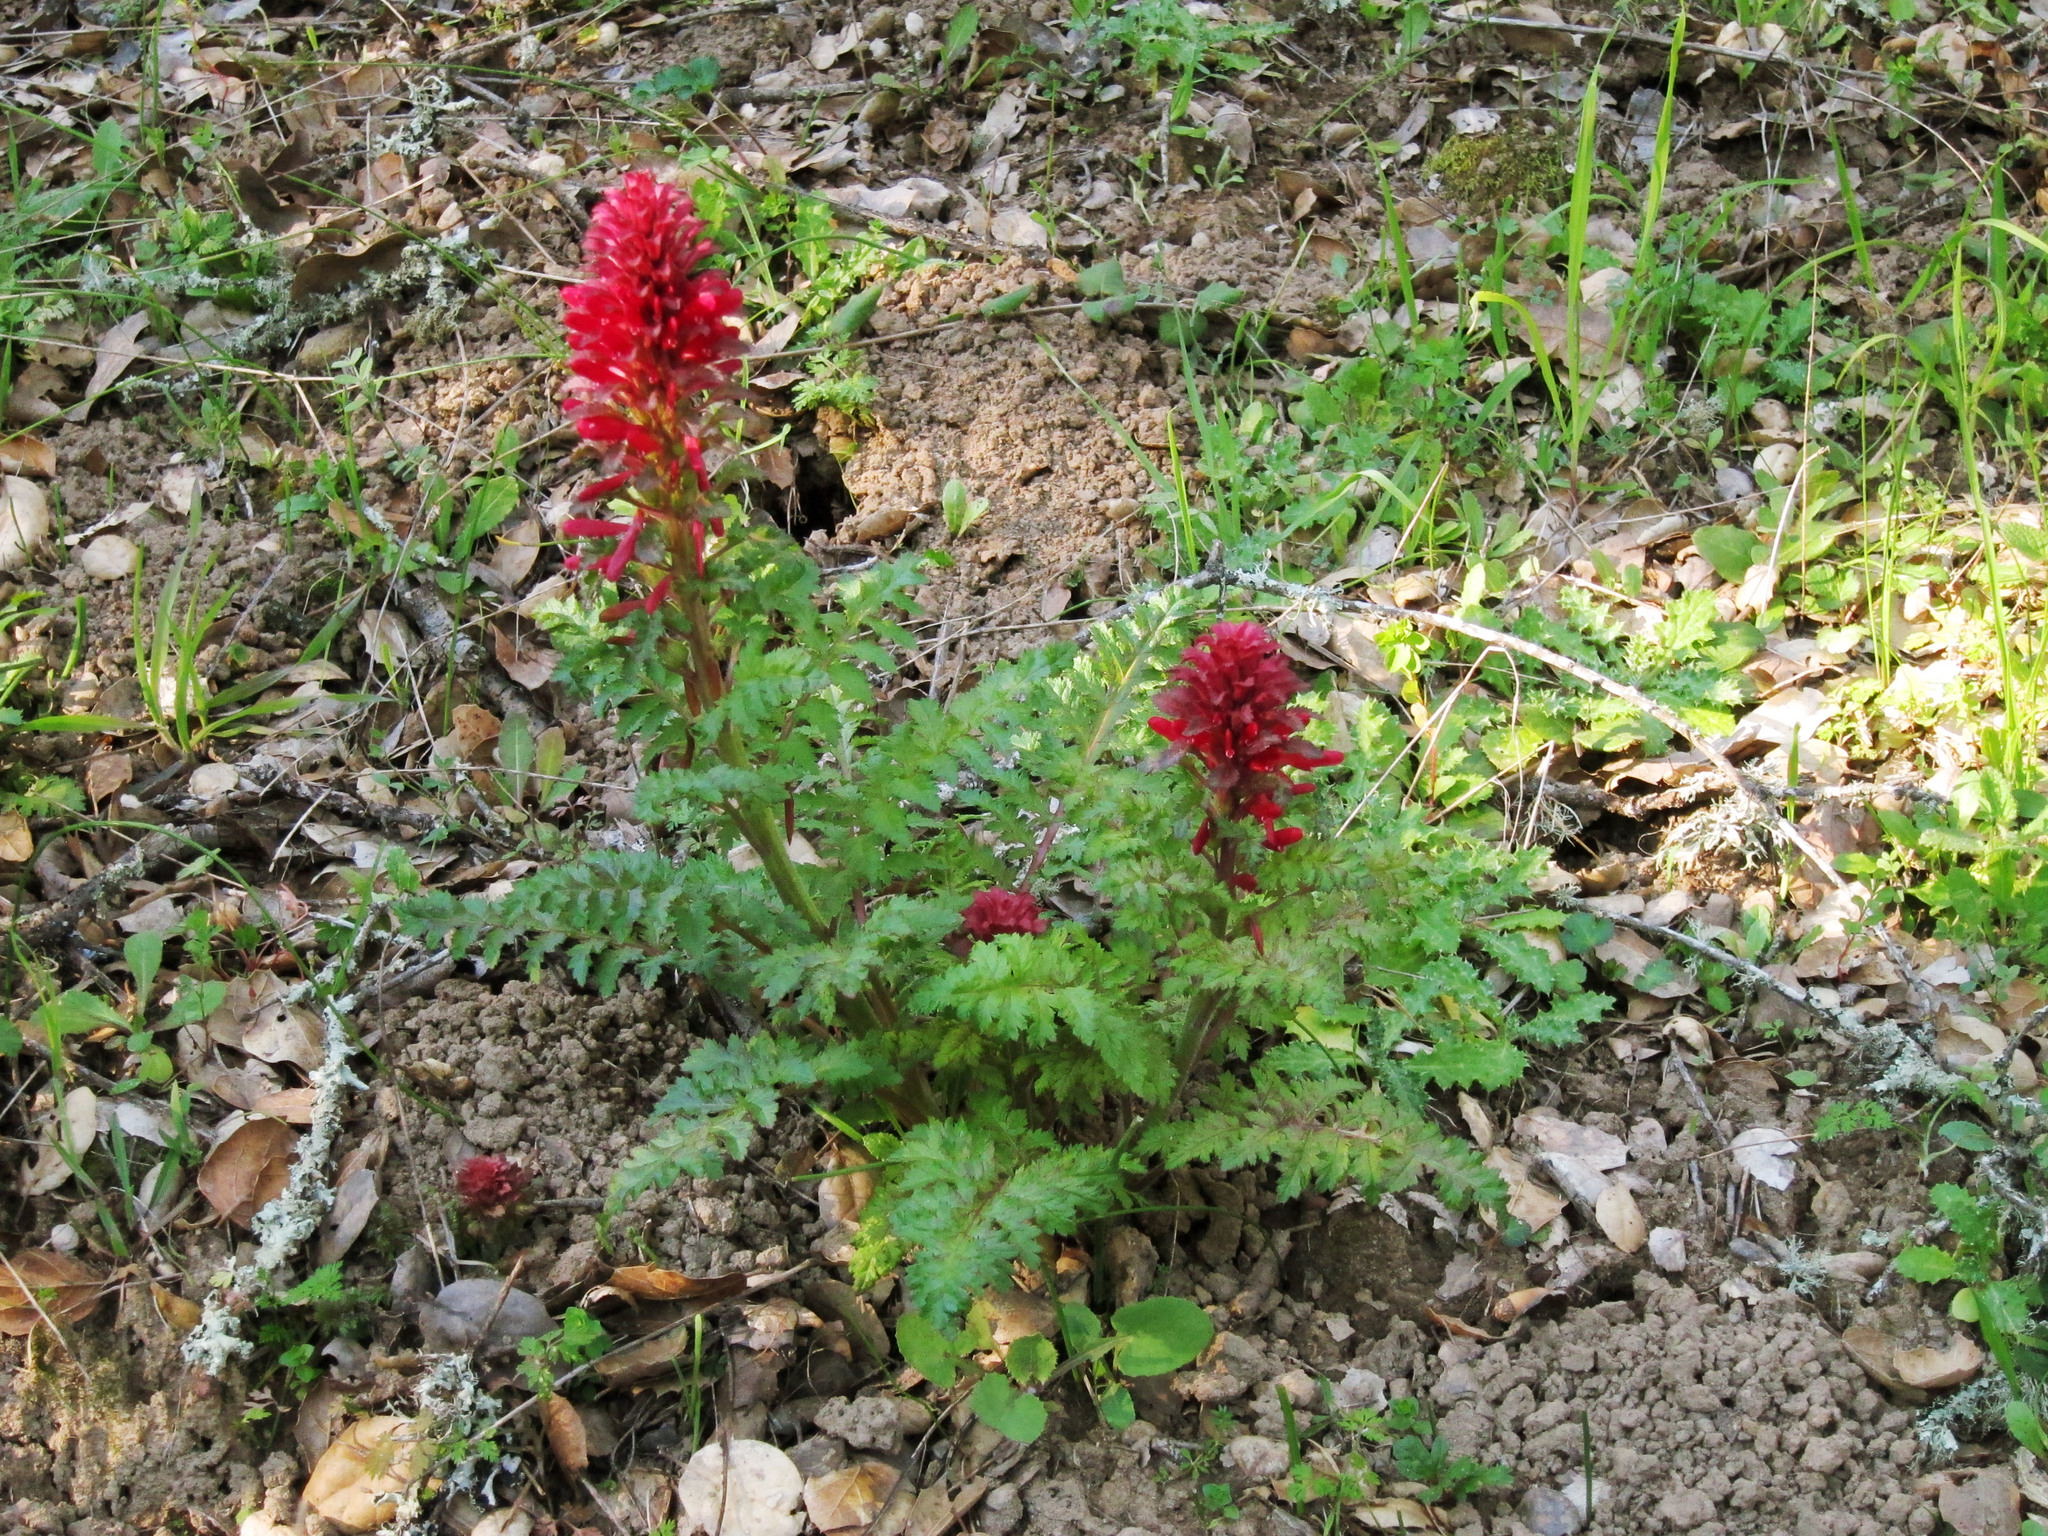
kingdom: Plantae
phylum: Tracheophyta
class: Magnoliopsida
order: Lamiales
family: Orobanchaceae
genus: Pedicularis
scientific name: Pedicularis densiflora
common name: Indian warrior
